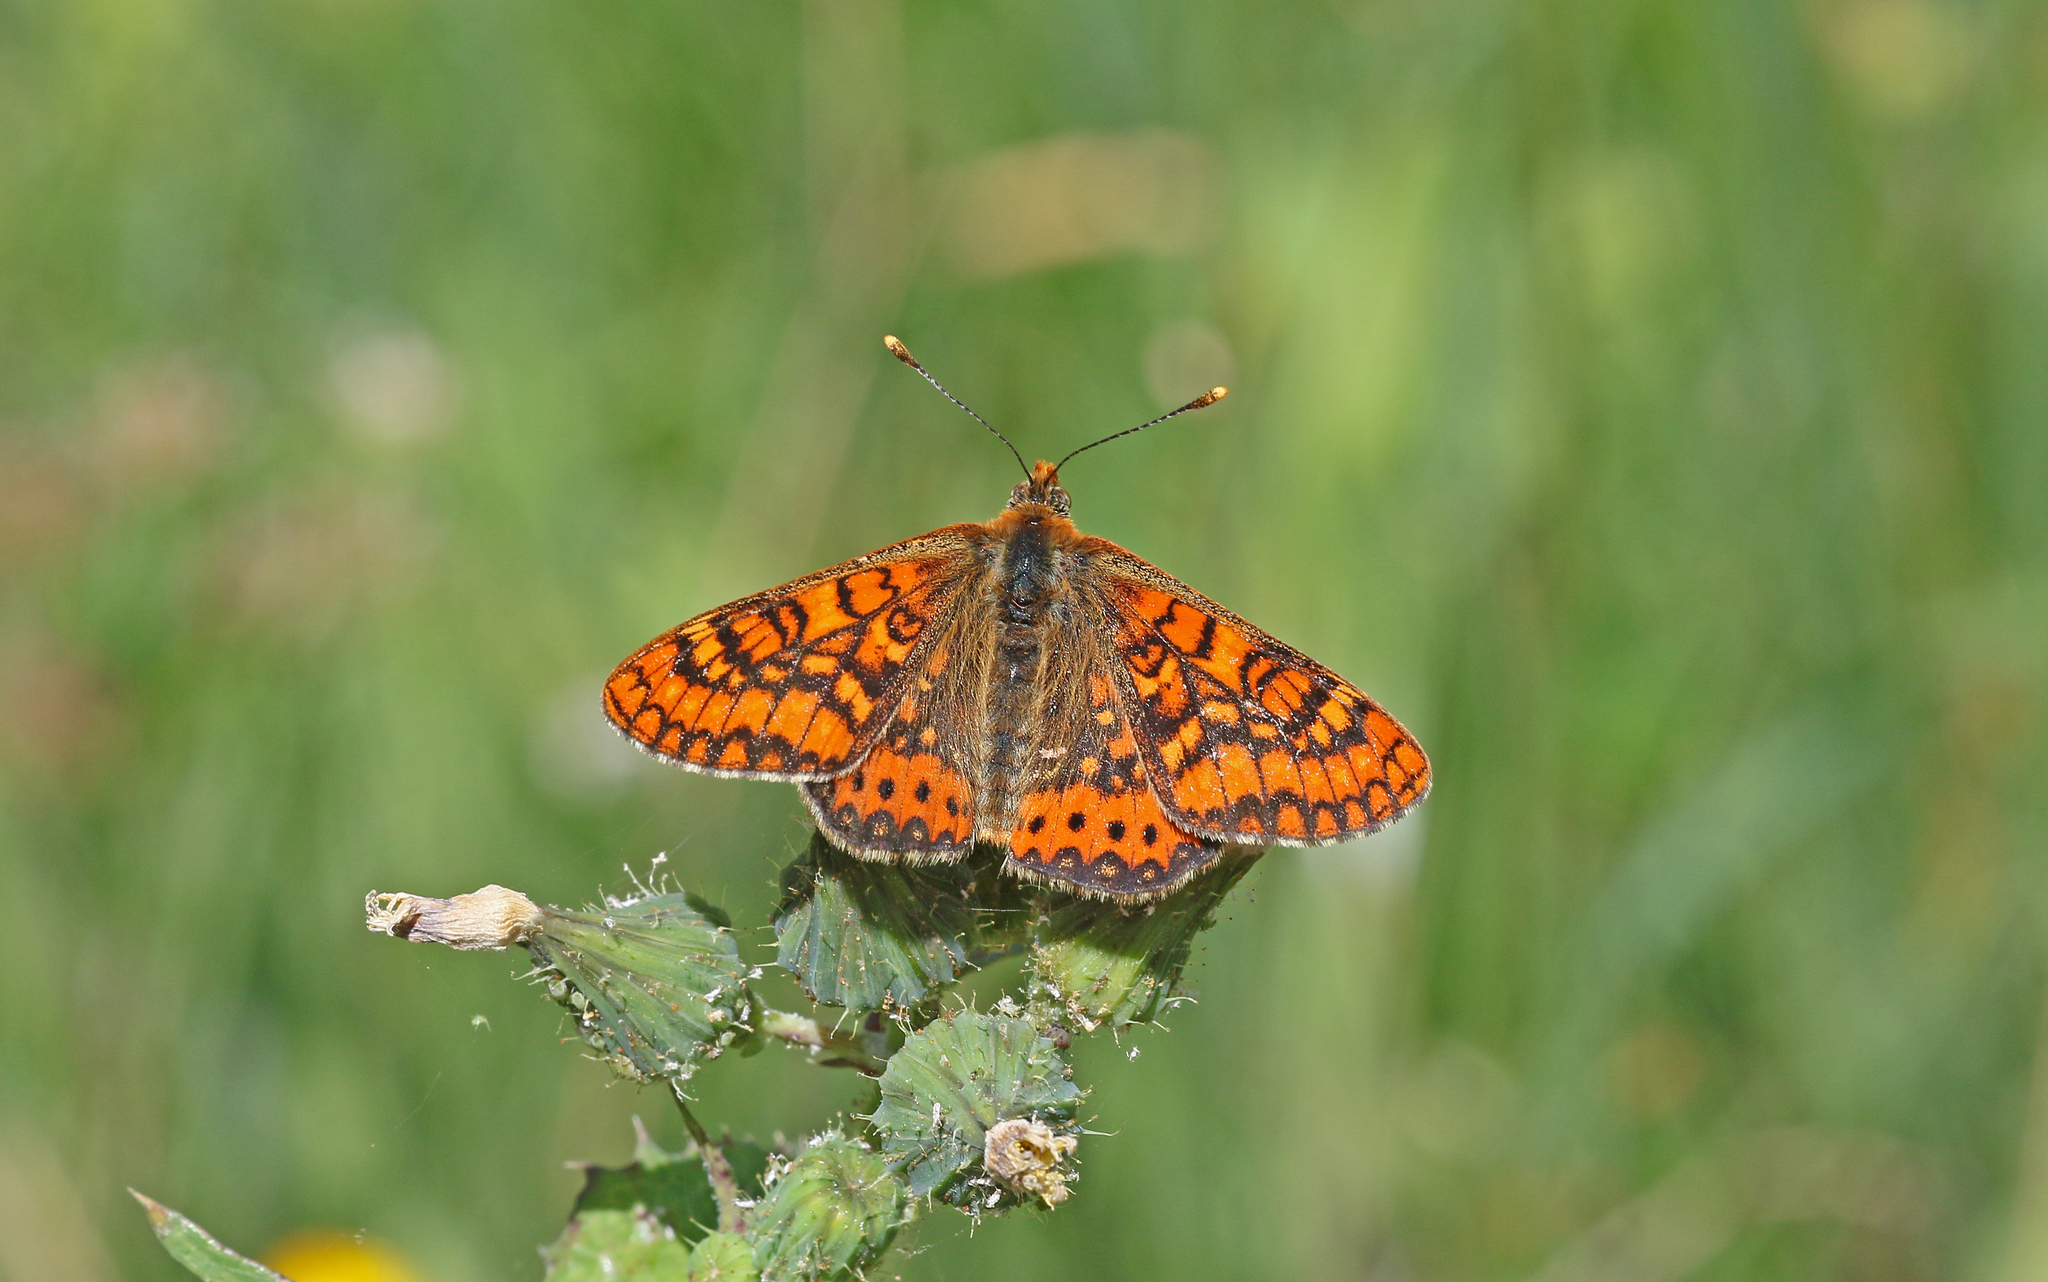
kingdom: Animalia
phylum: Arthropoda
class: Insecta
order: Lepidoptera
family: Nymphalidae
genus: Euphydryas
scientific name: Euphydryas aurinia
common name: Marsh fritillary
